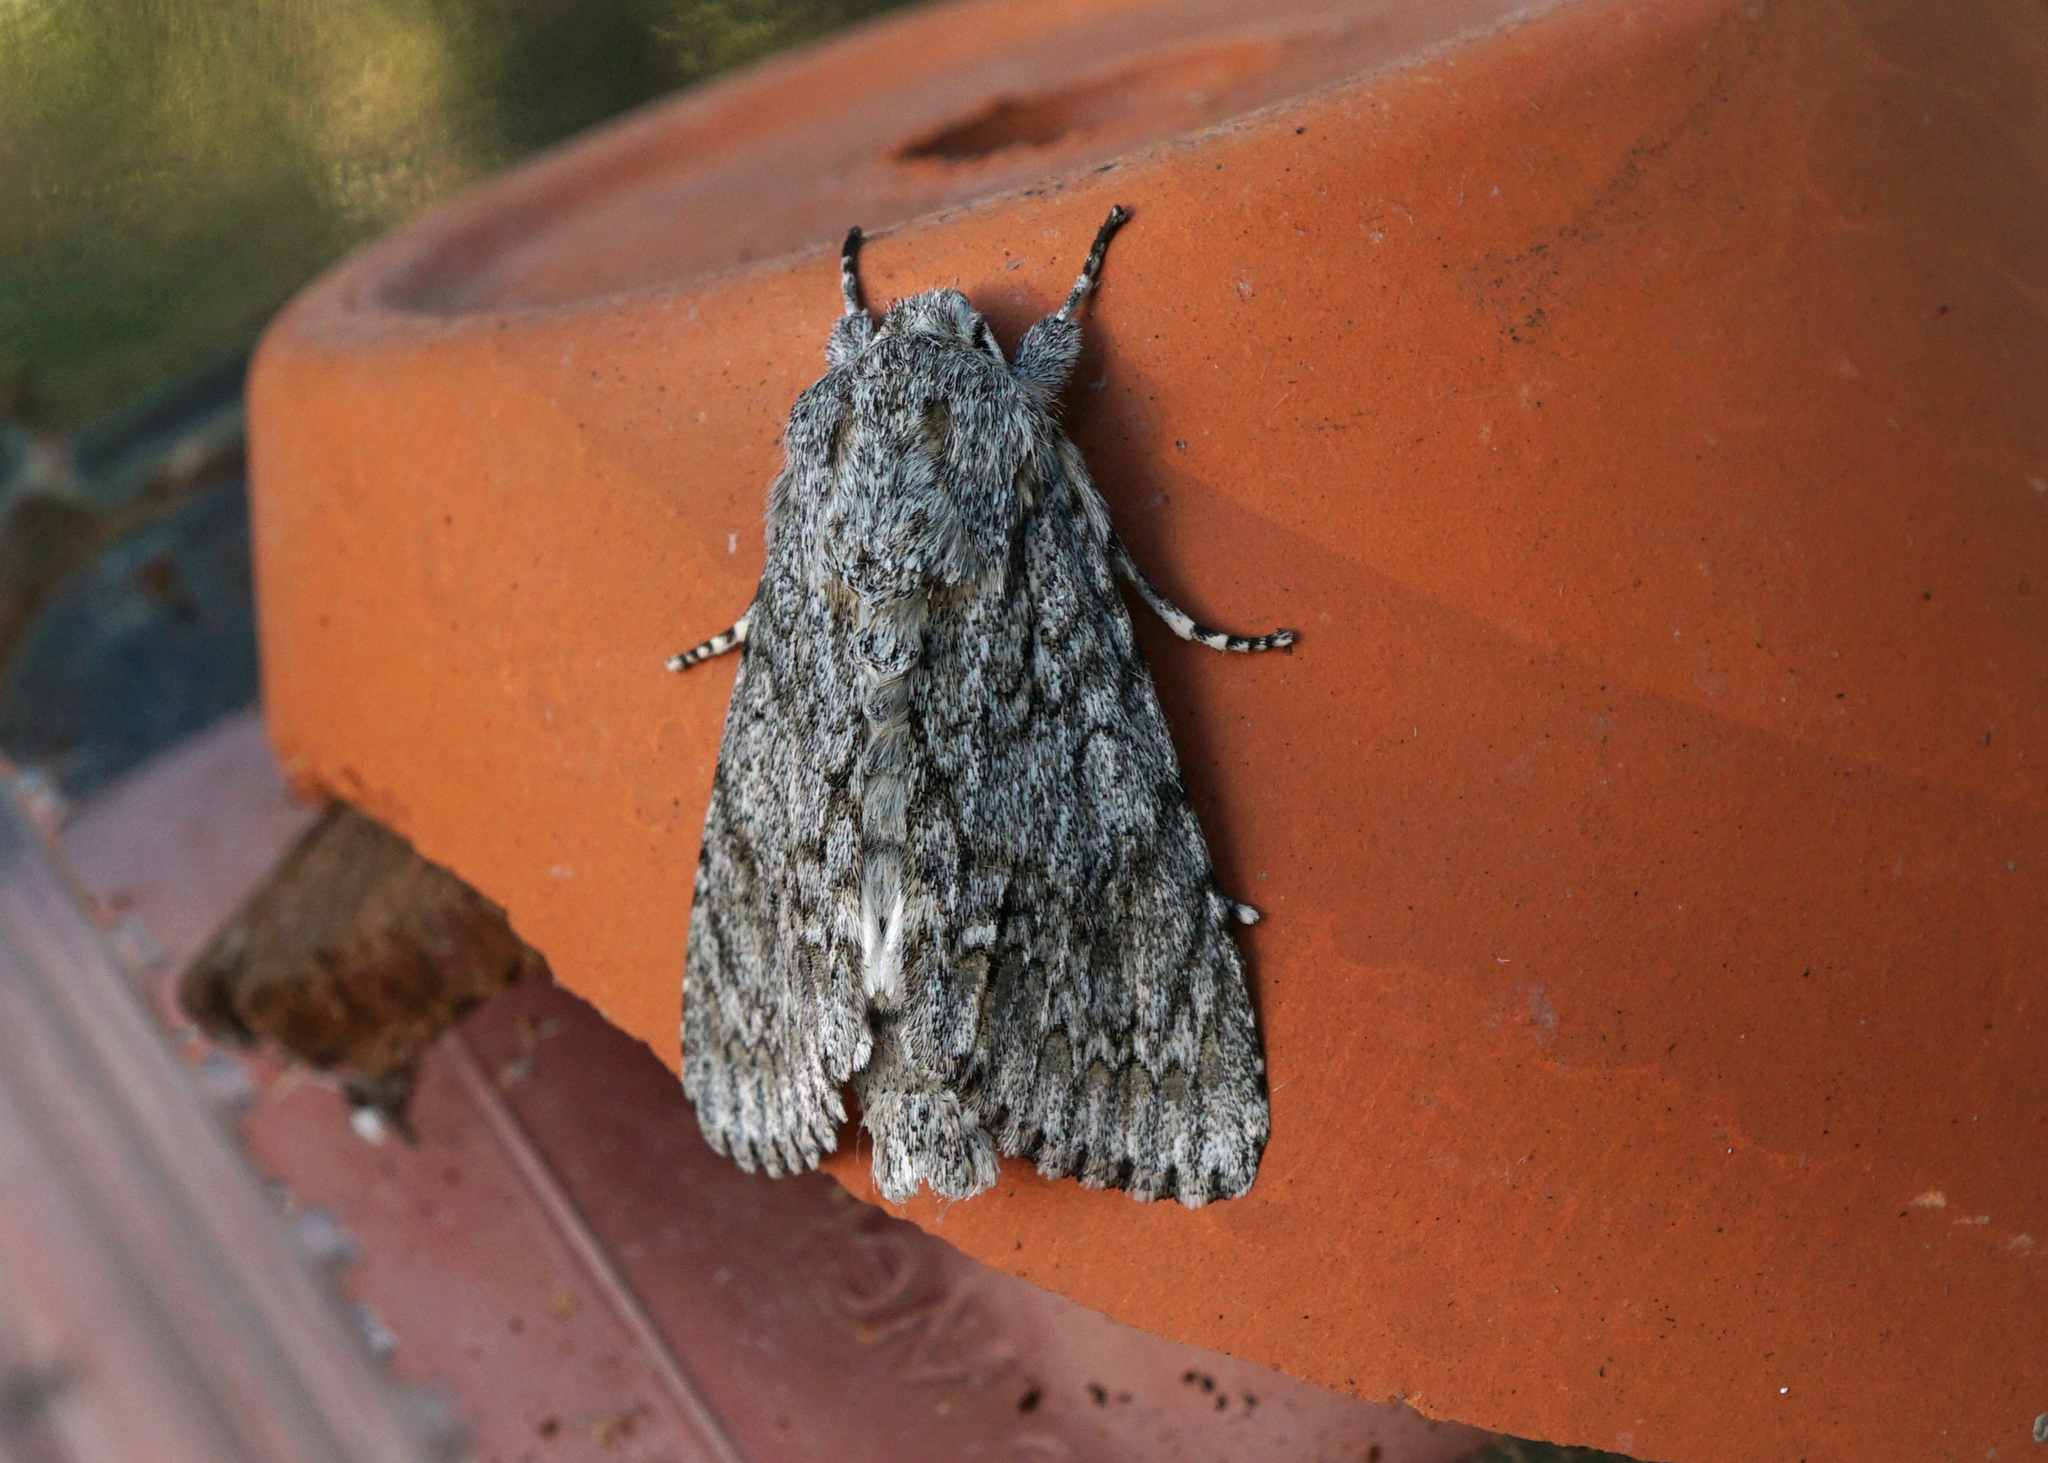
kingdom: Animalia
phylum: Arthropoda
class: Insecta
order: Lepidoptera
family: Noctuidae
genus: Acronicta
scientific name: Acronicta aceris
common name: Sycamore
